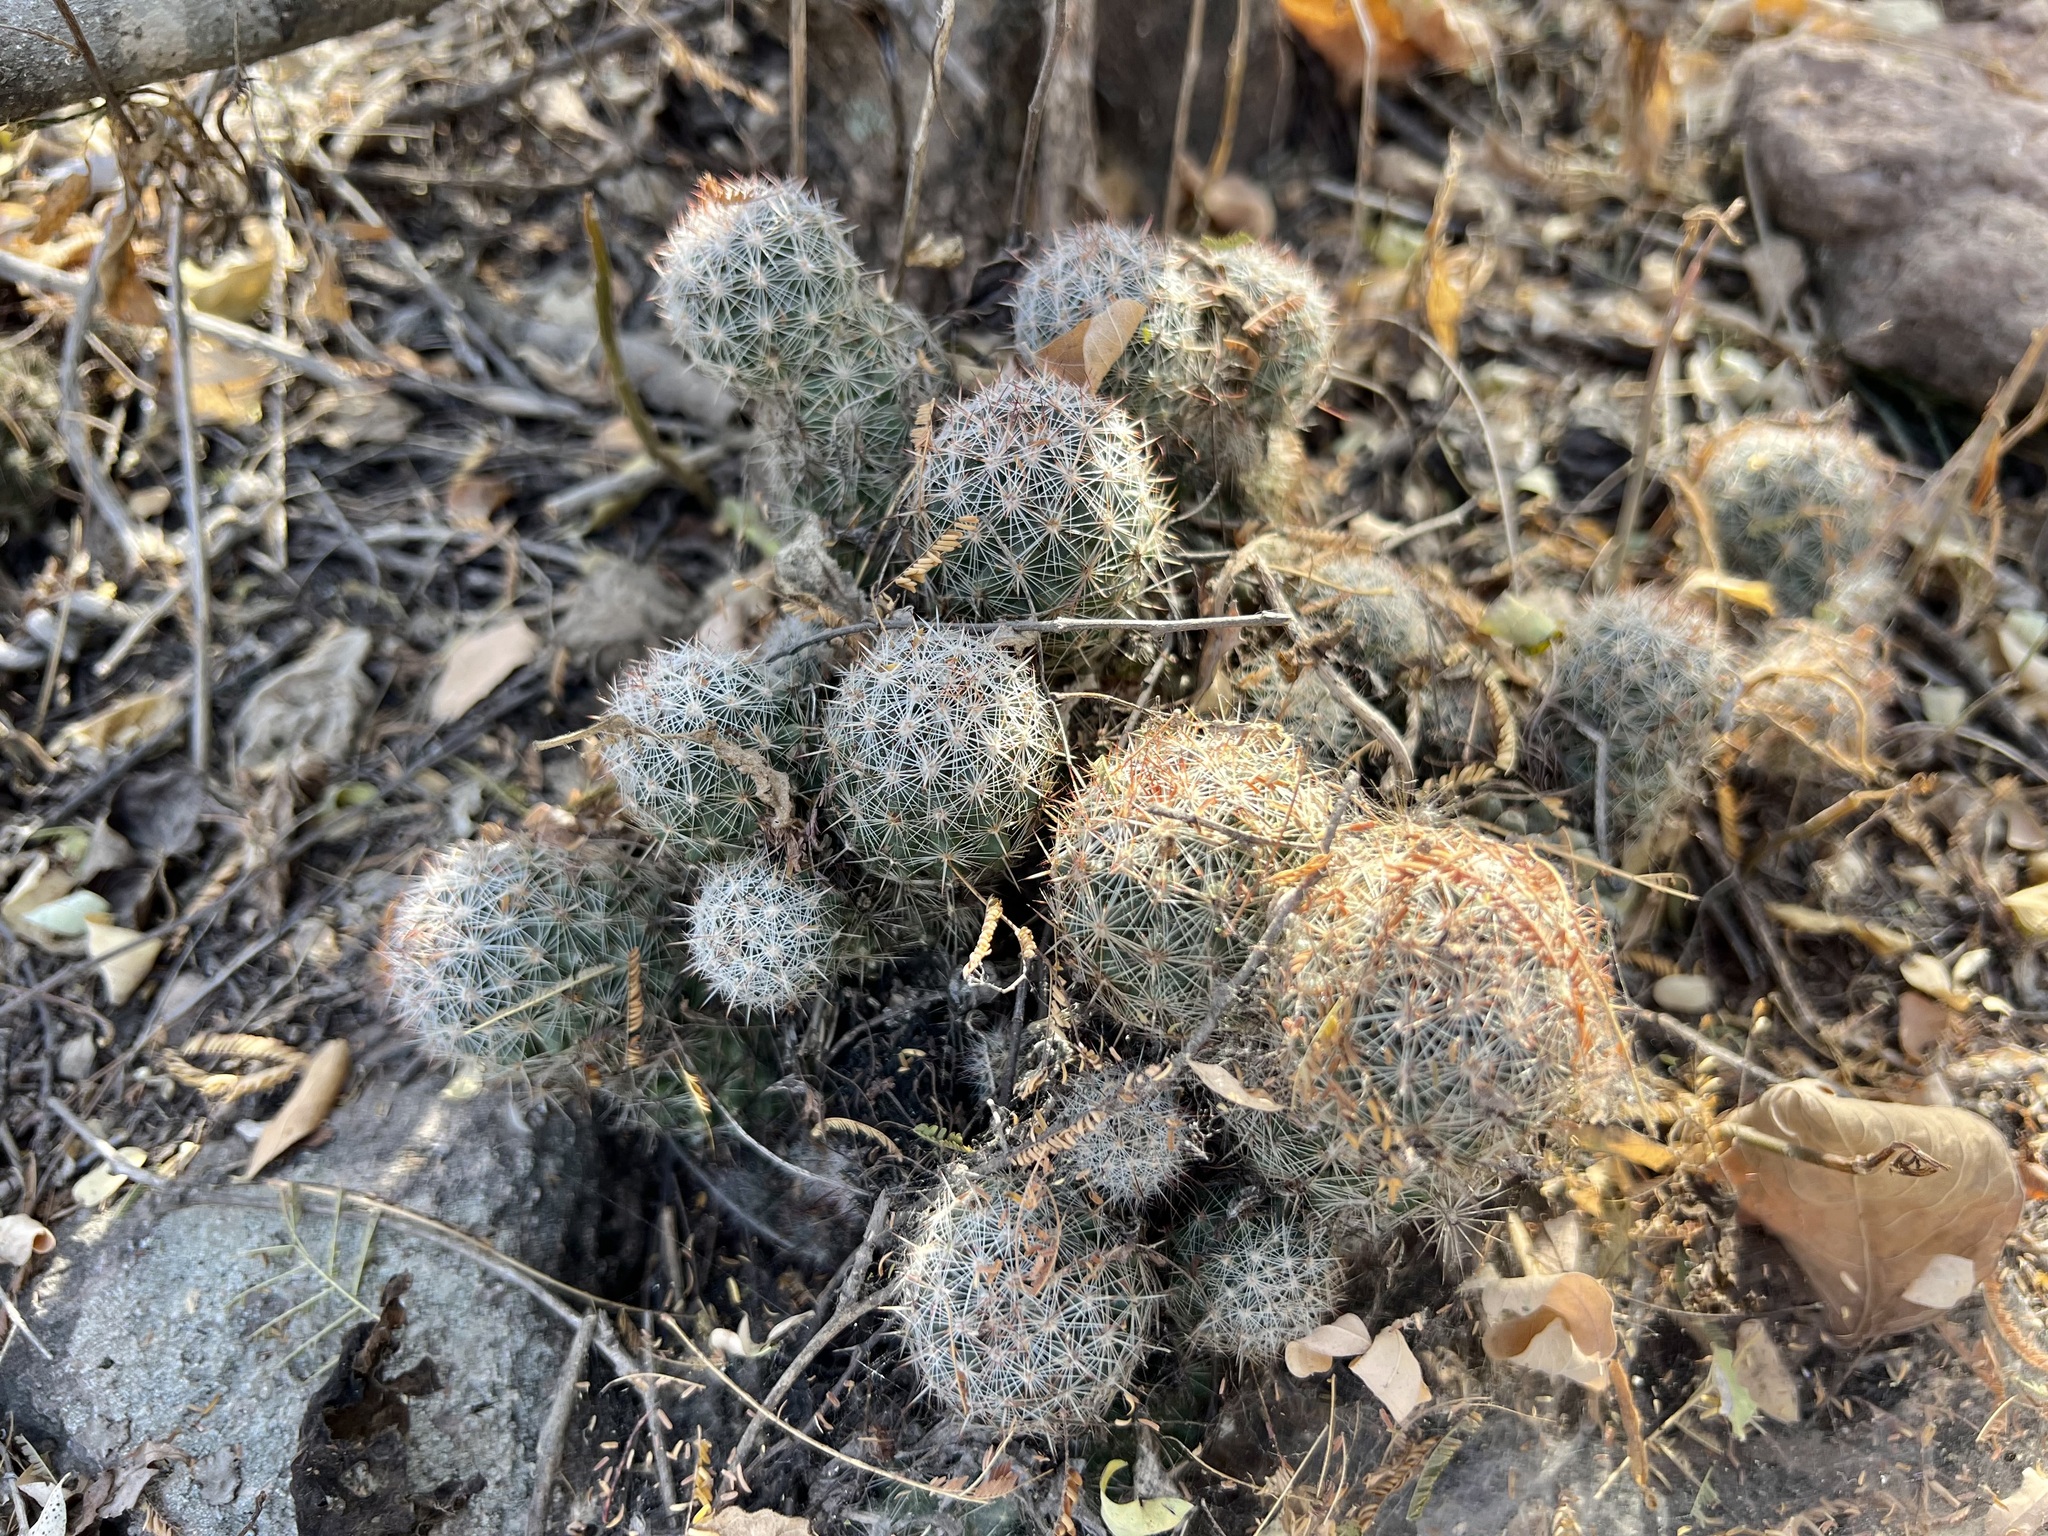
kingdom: Plantae
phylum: Tracheophyta
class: Magnoliopsida
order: Caryophyllales
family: Cactaceae
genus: Cochemiea
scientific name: Cochemiea sheldonii
